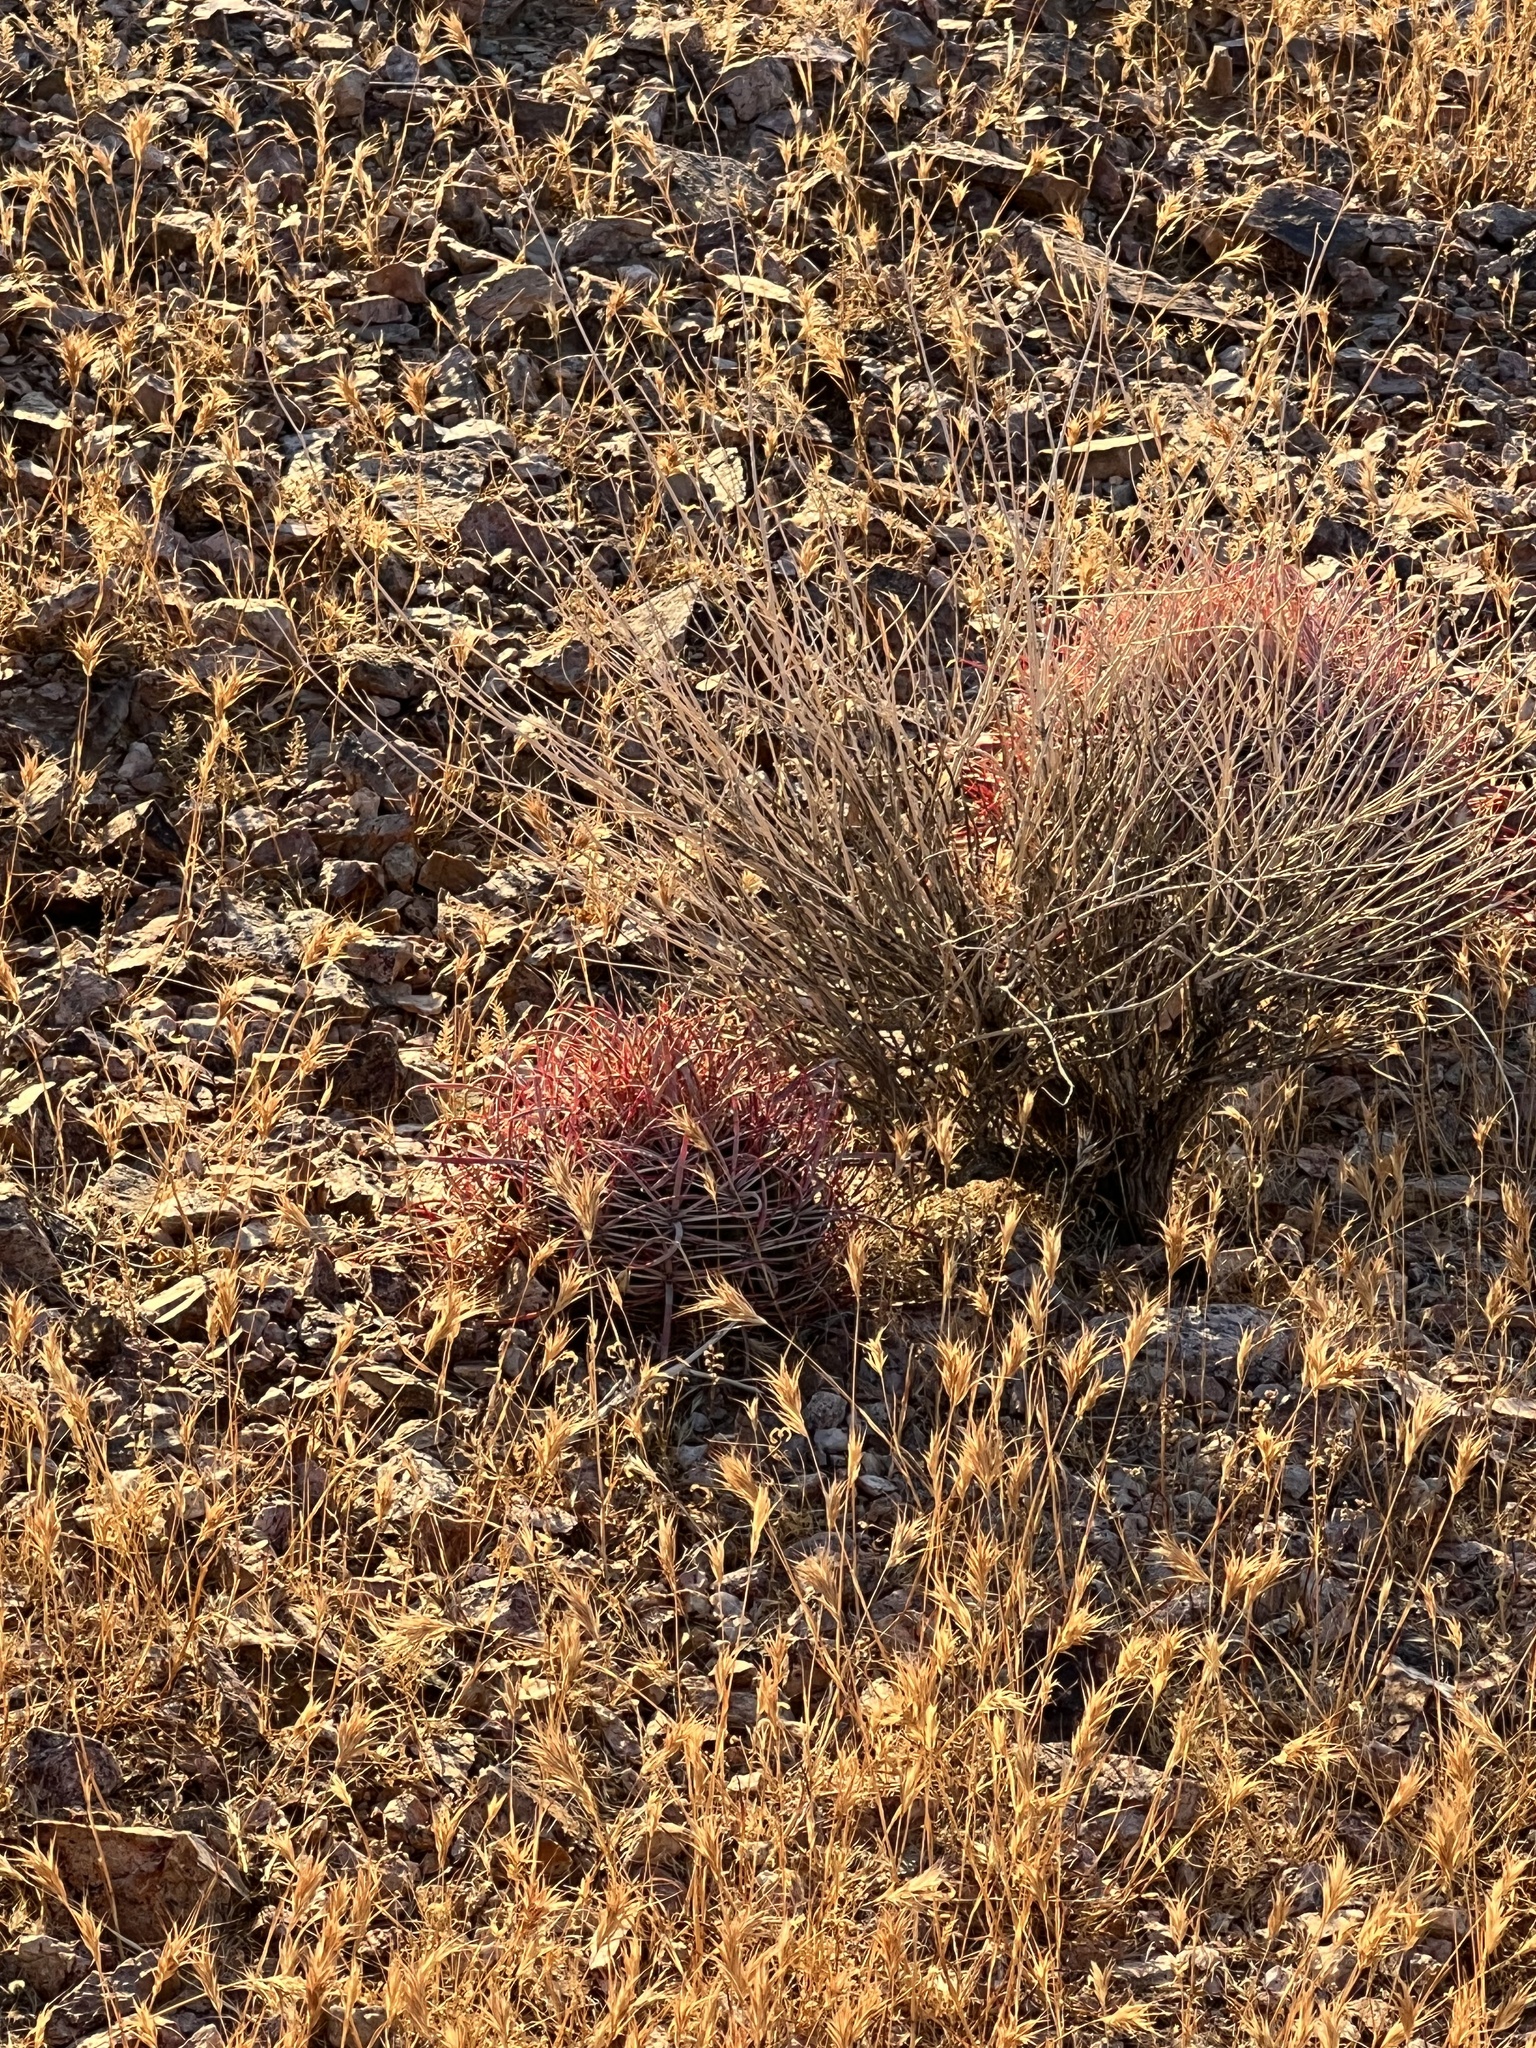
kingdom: Plantae
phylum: Tracheophyta
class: Magnoliopsida
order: Caryophyllales
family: Cactaceae
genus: Ferocactus
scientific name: Ferocactus cylindraceus
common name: California barrel cactus
